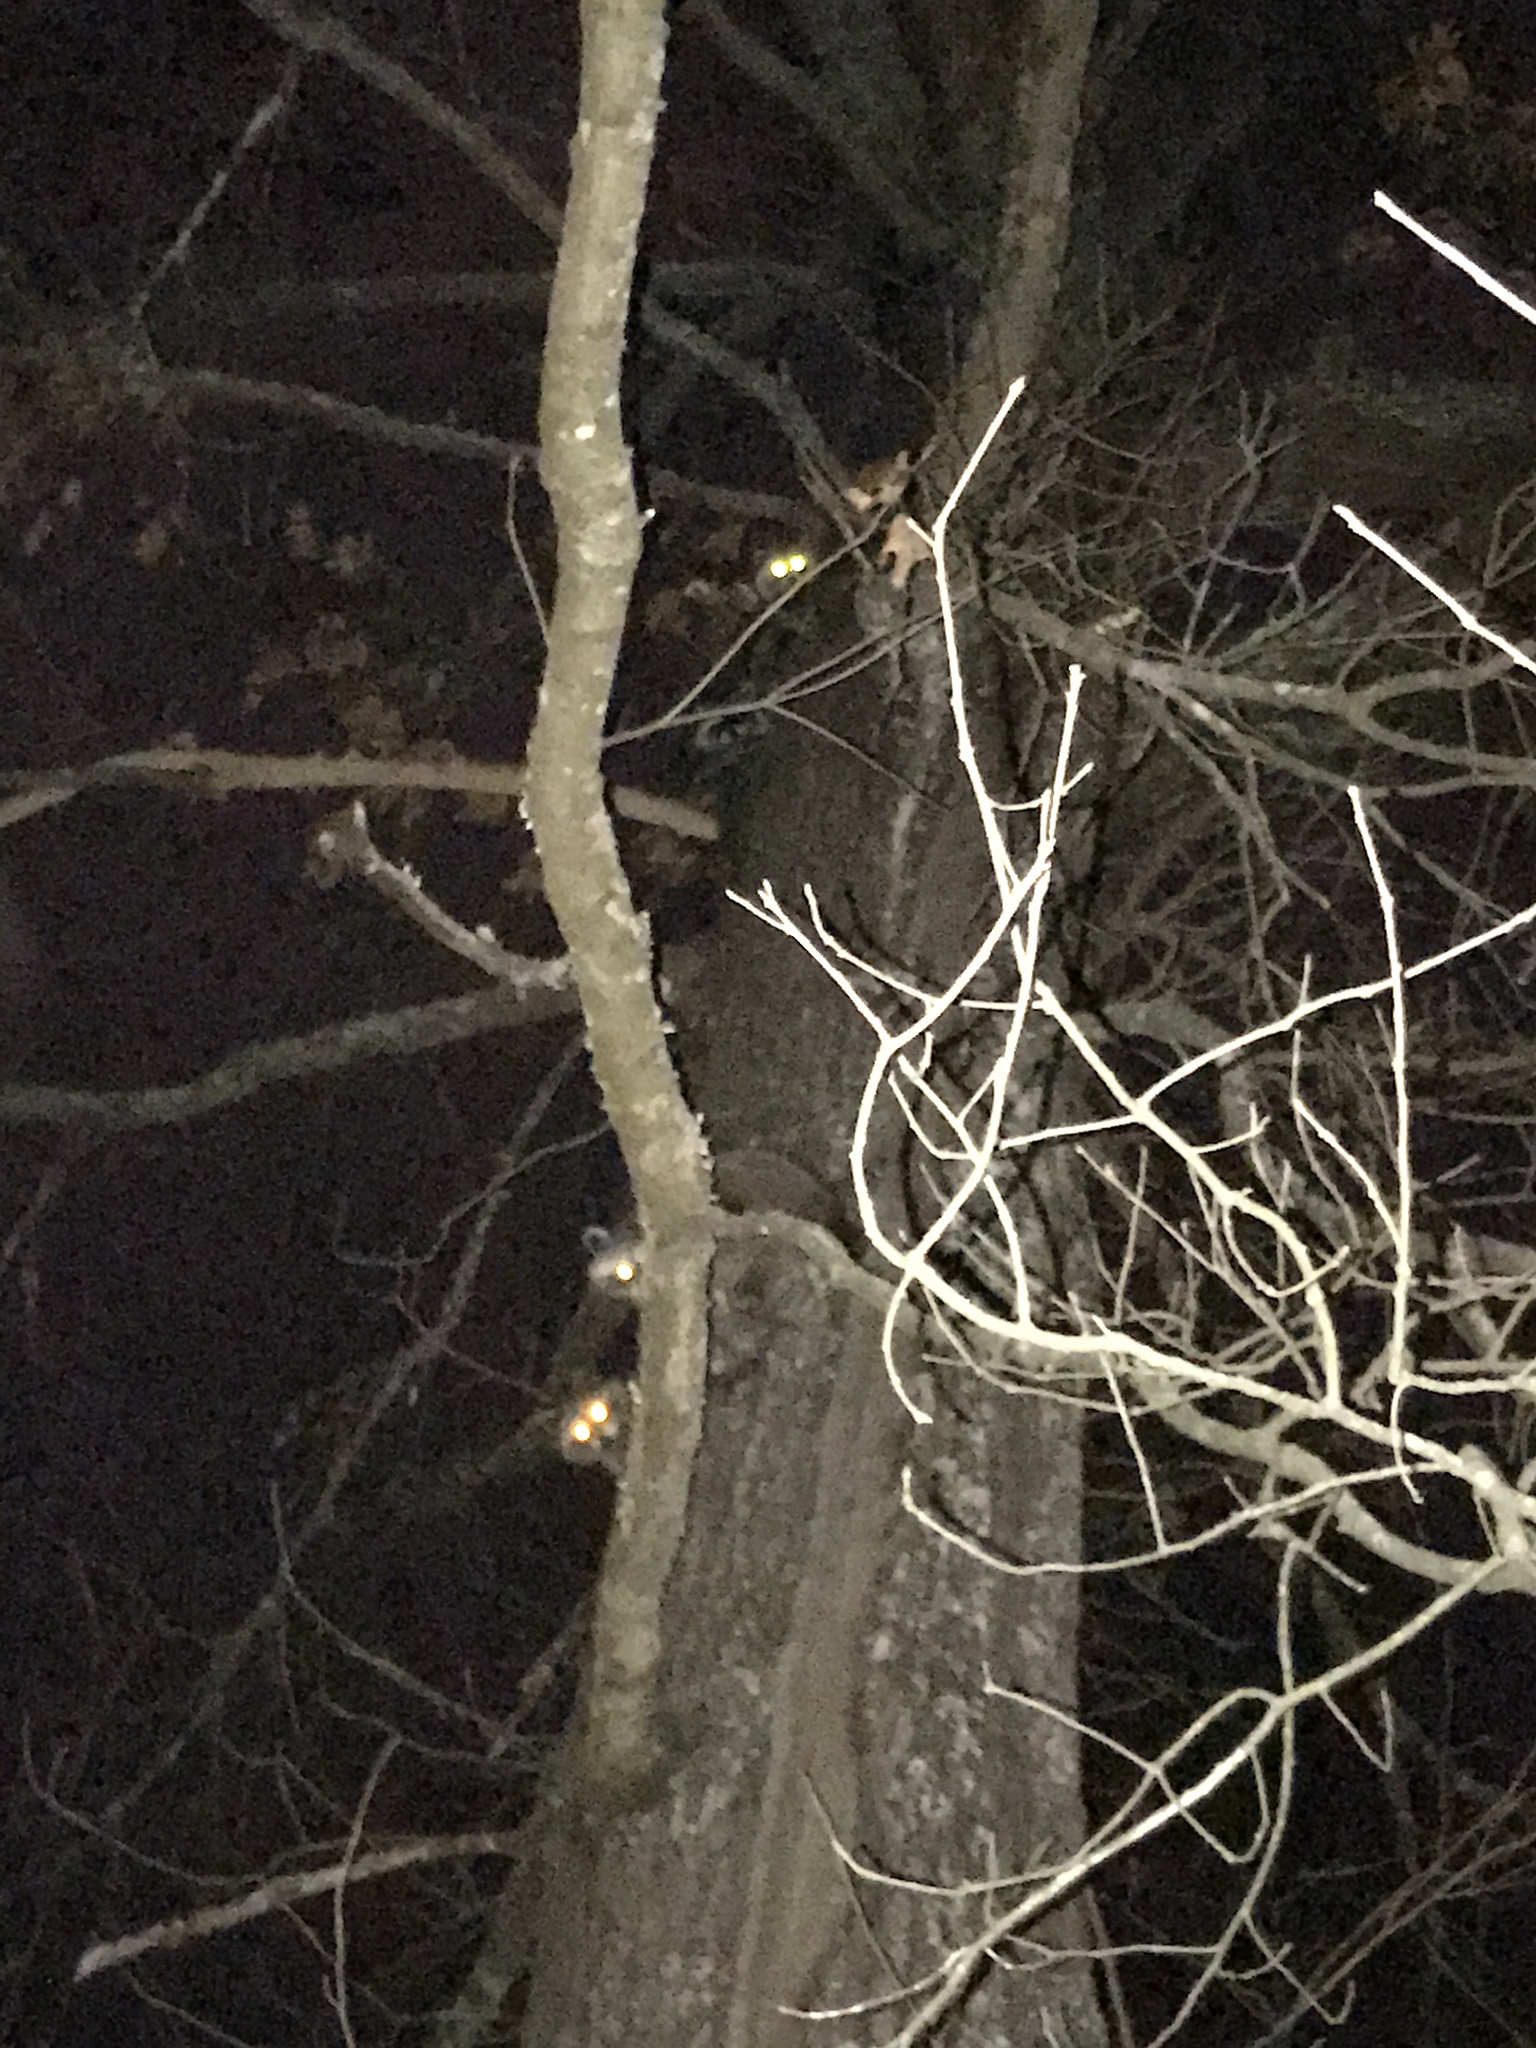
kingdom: Animalia
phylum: Chordata
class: Mammalia
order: Carnivora
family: Procyonidae
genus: Procyon
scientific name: Procyon lotor
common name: Raccoon
